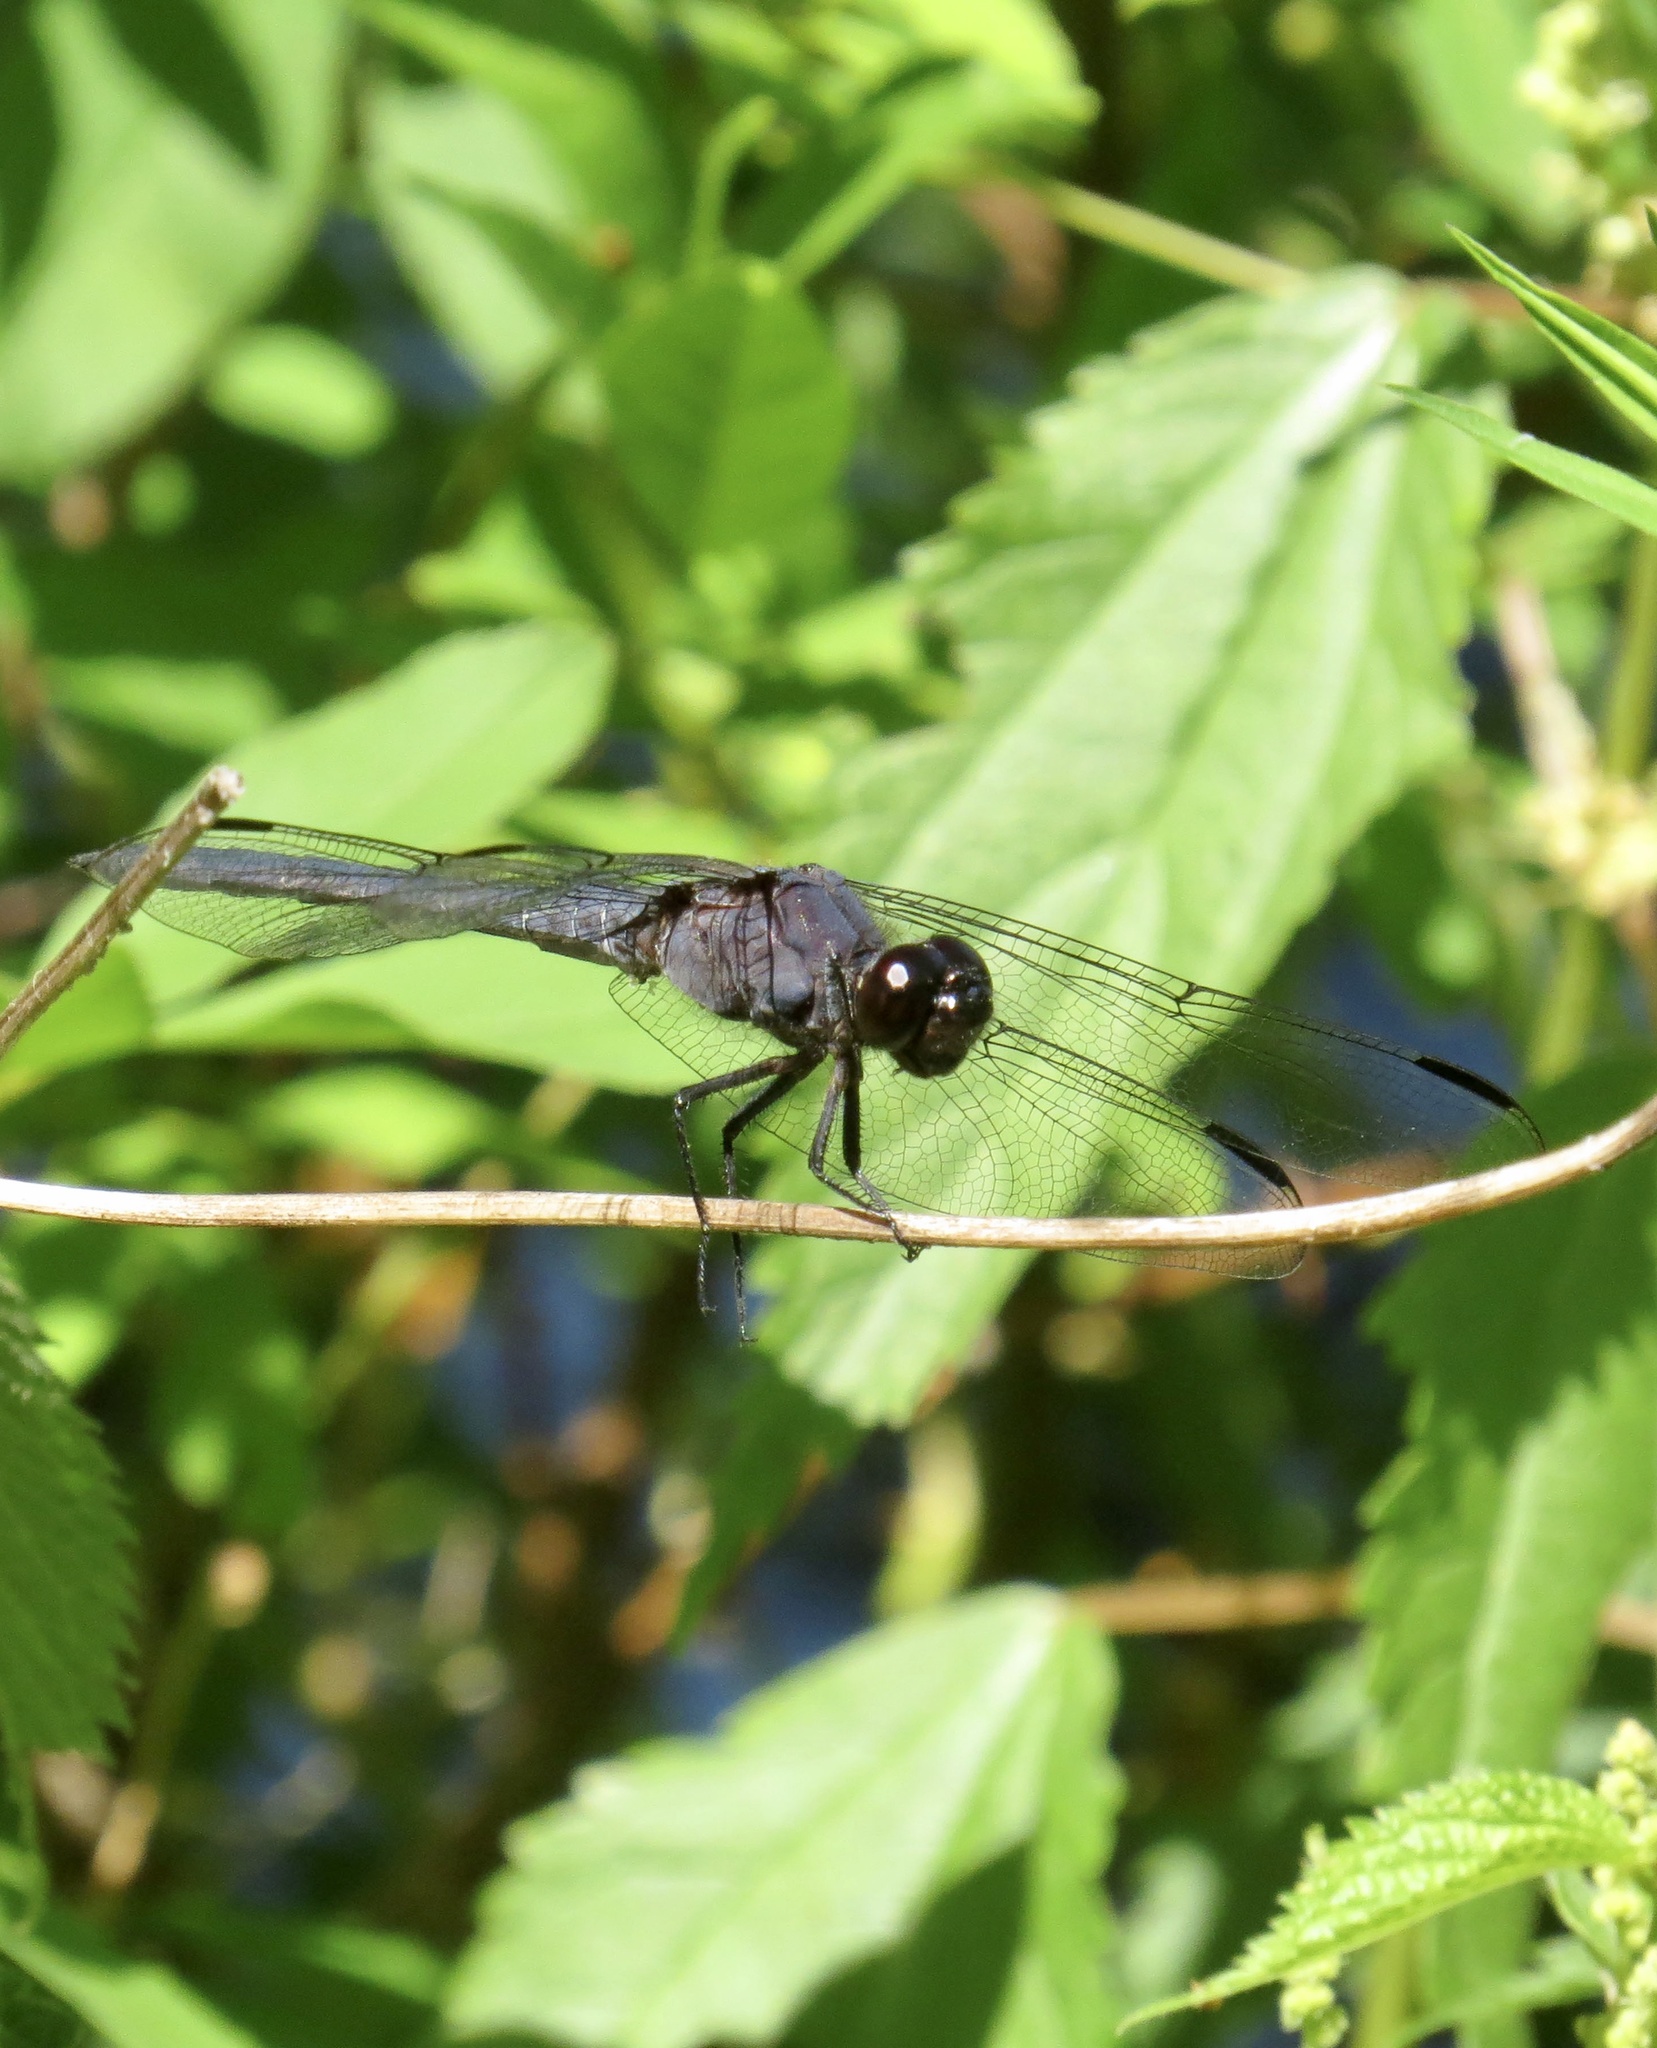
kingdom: Animalia
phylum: Arthropoda
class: Insecta
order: Odonata
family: Libellulidae
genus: Libellula
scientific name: Libellula incesta
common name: Slaty skimmer
